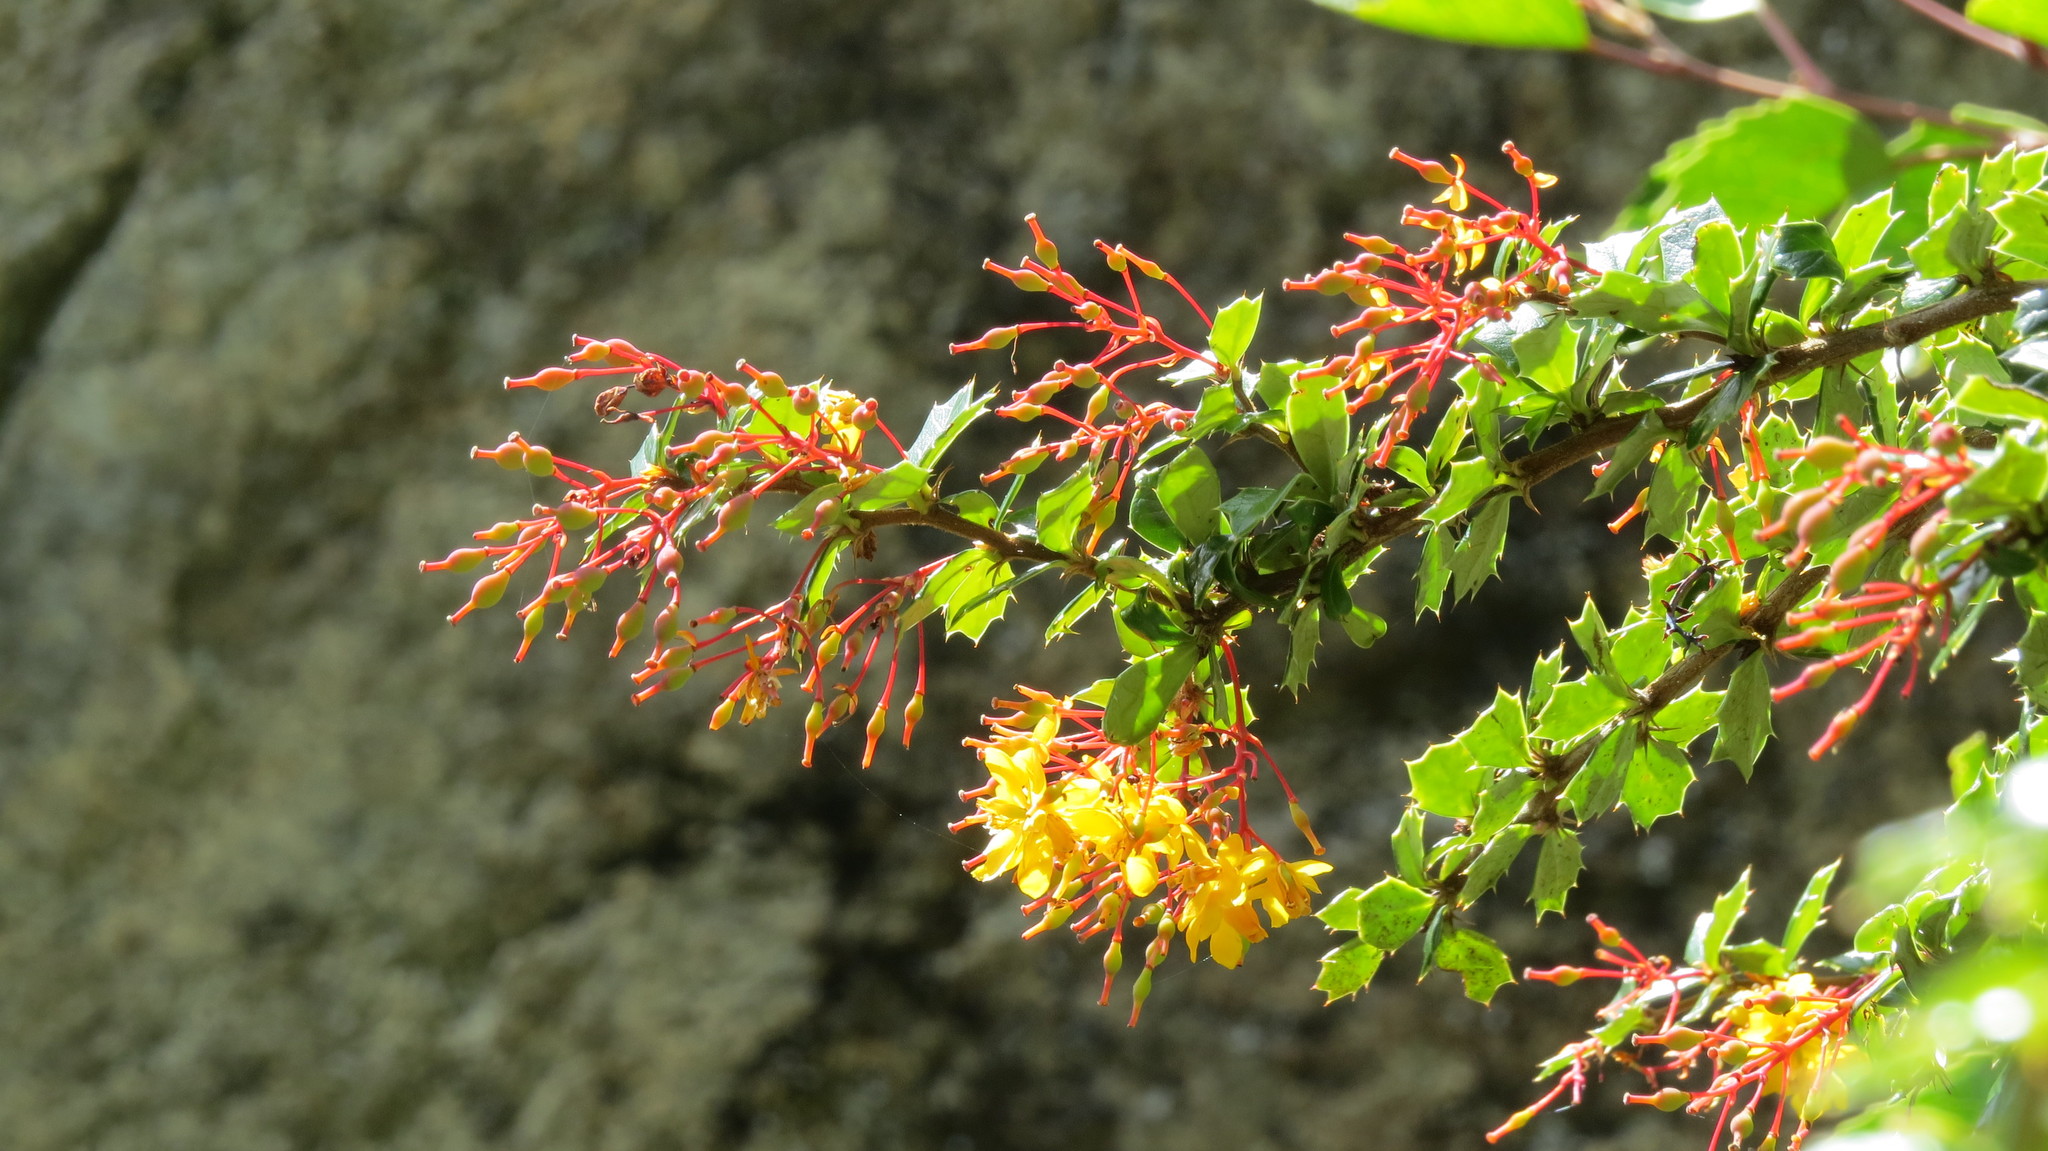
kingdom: Plantae
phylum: Tracheophyta
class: Magnoliopsida
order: Ranunculales
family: Berberidaceae
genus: Berberis
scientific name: Berberis darwinii
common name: Darwin's barberry
